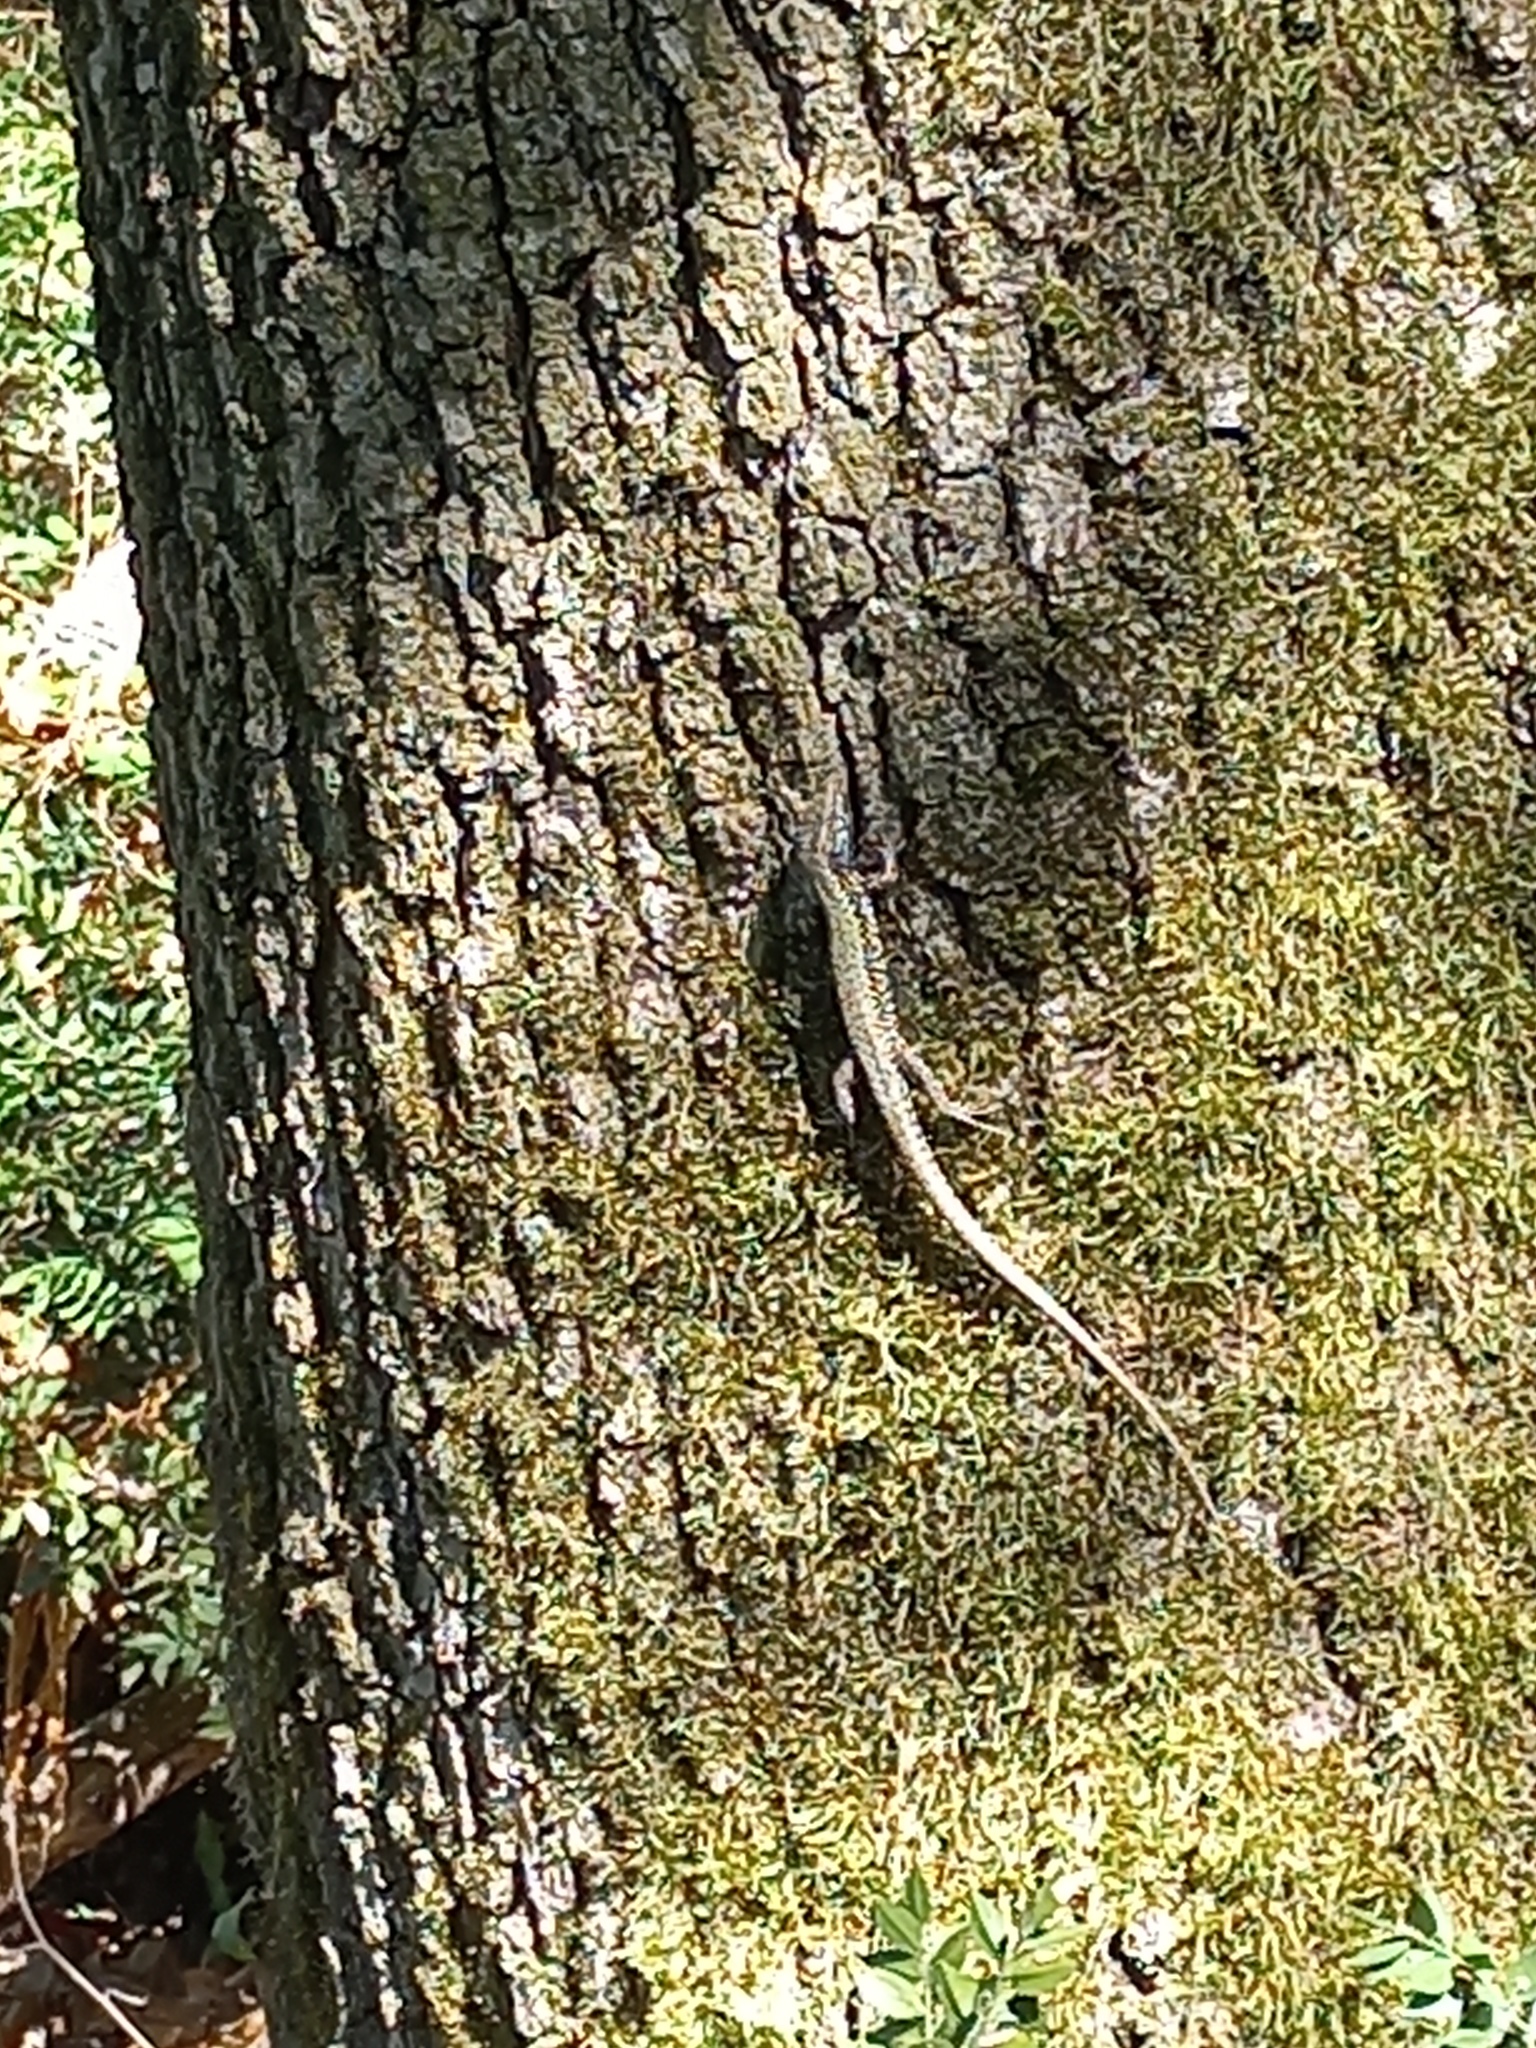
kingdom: Animalia
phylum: Chordata
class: Squamata
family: Lacertidae
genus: Podarcis
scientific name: Podarcis muralis
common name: Common wall lizard
